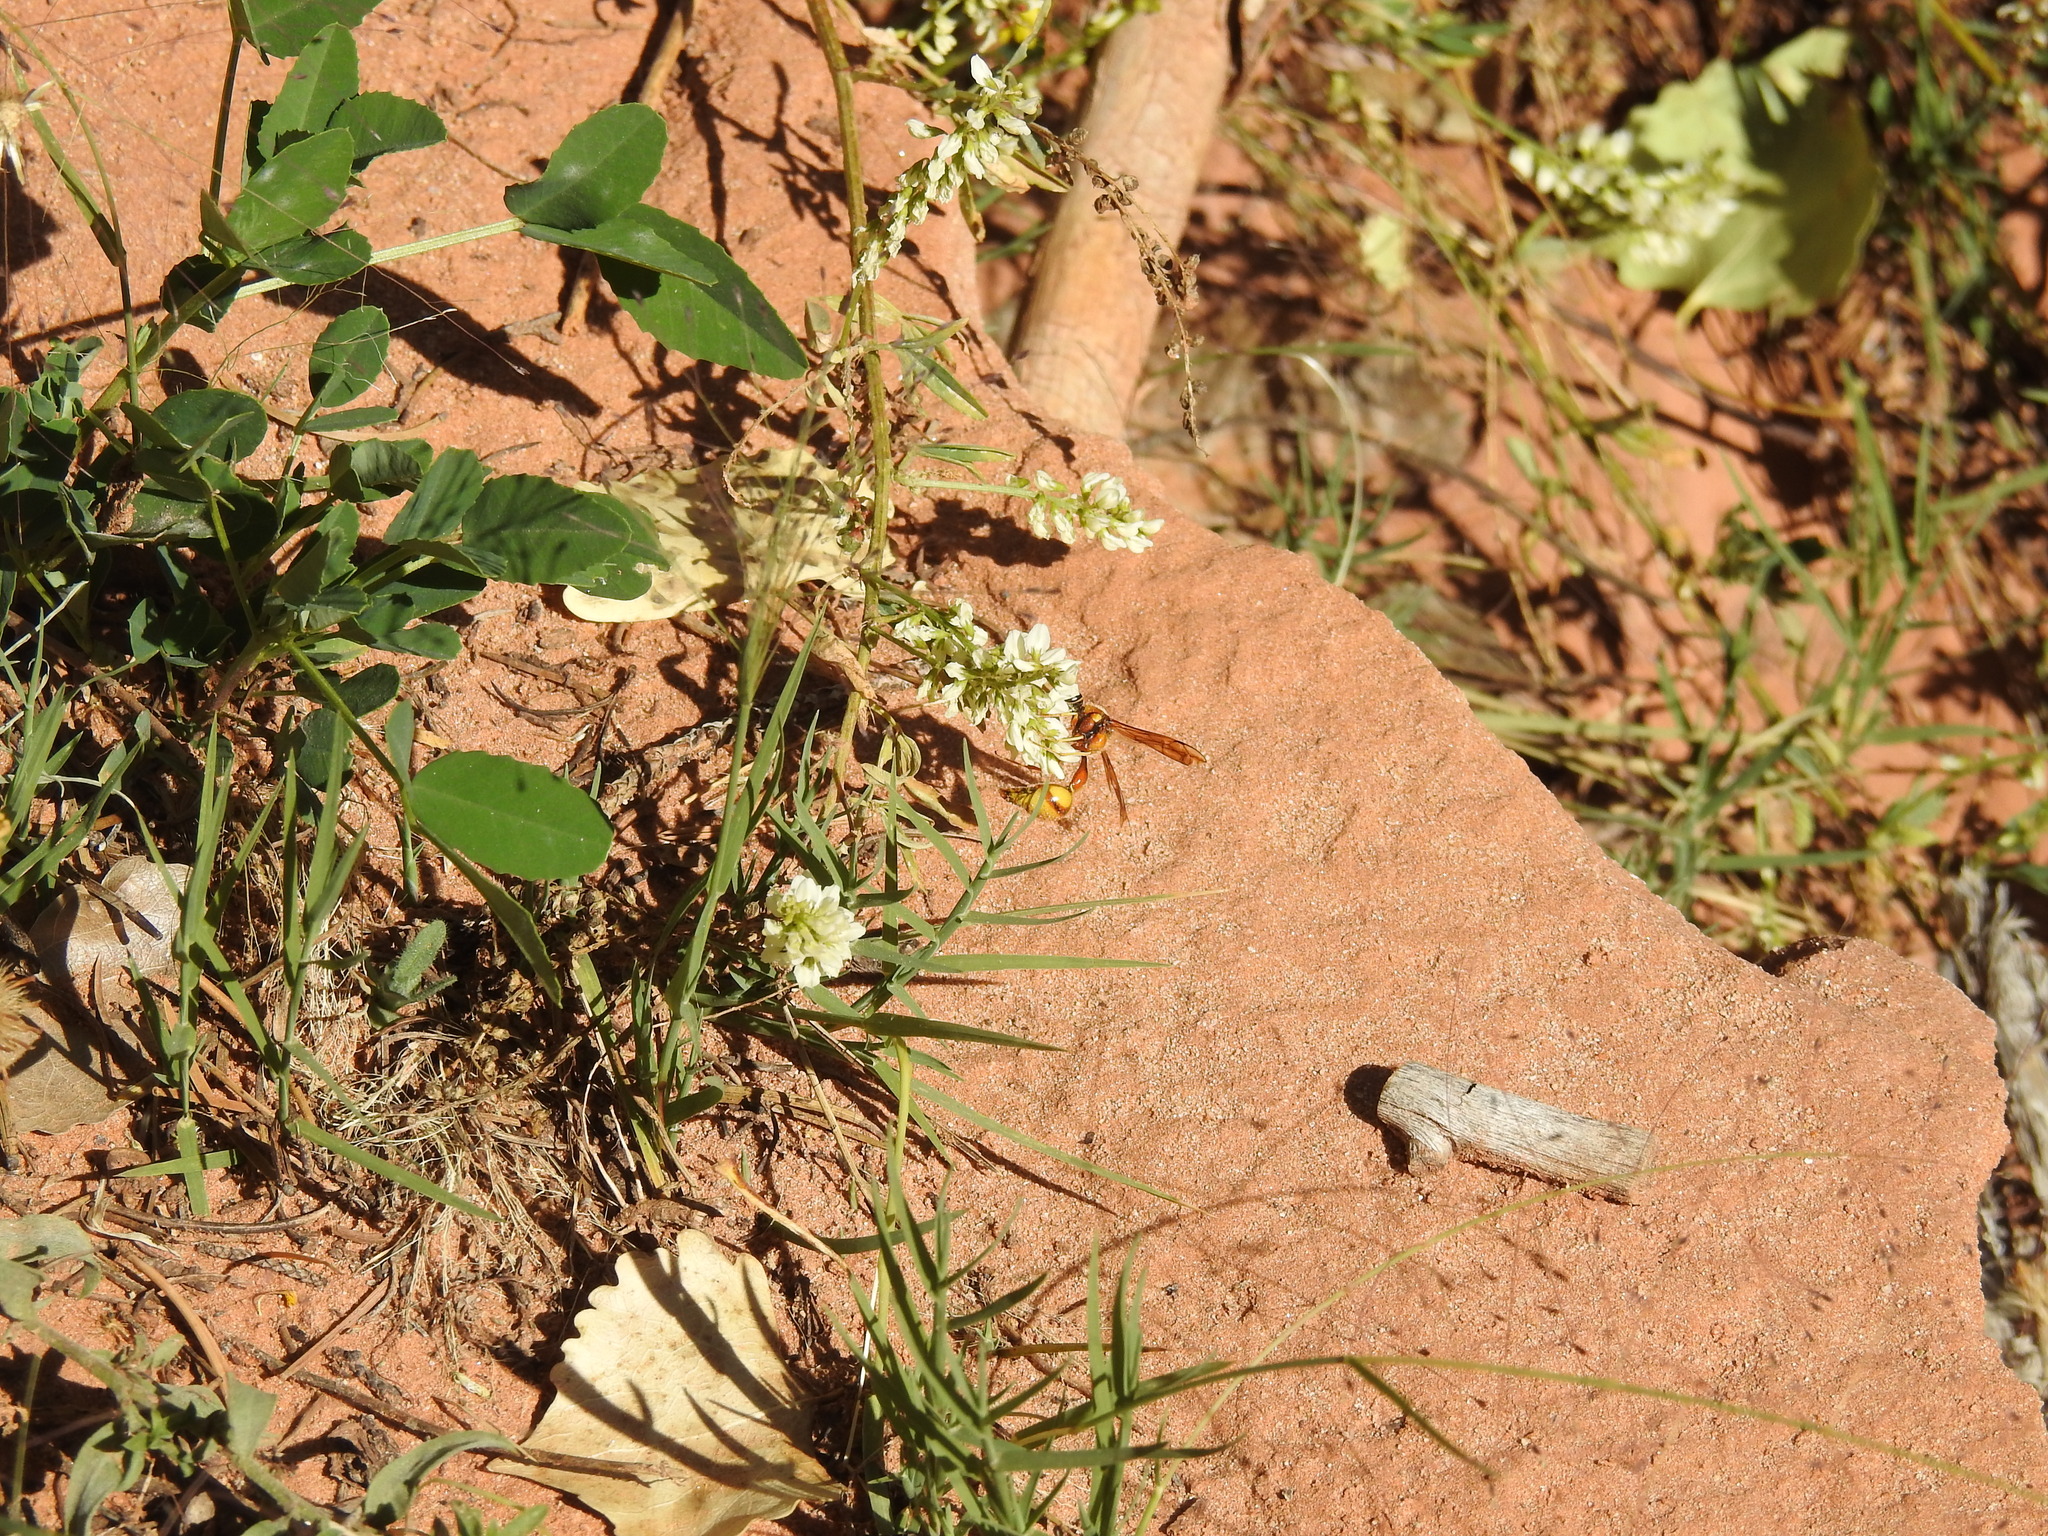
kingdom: Plantae
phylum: Tracheophyta
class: Magnoliopsida
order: Fabales
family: Fabaceae
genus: Melilotus
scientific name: Melilotus albus
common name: White melilot
